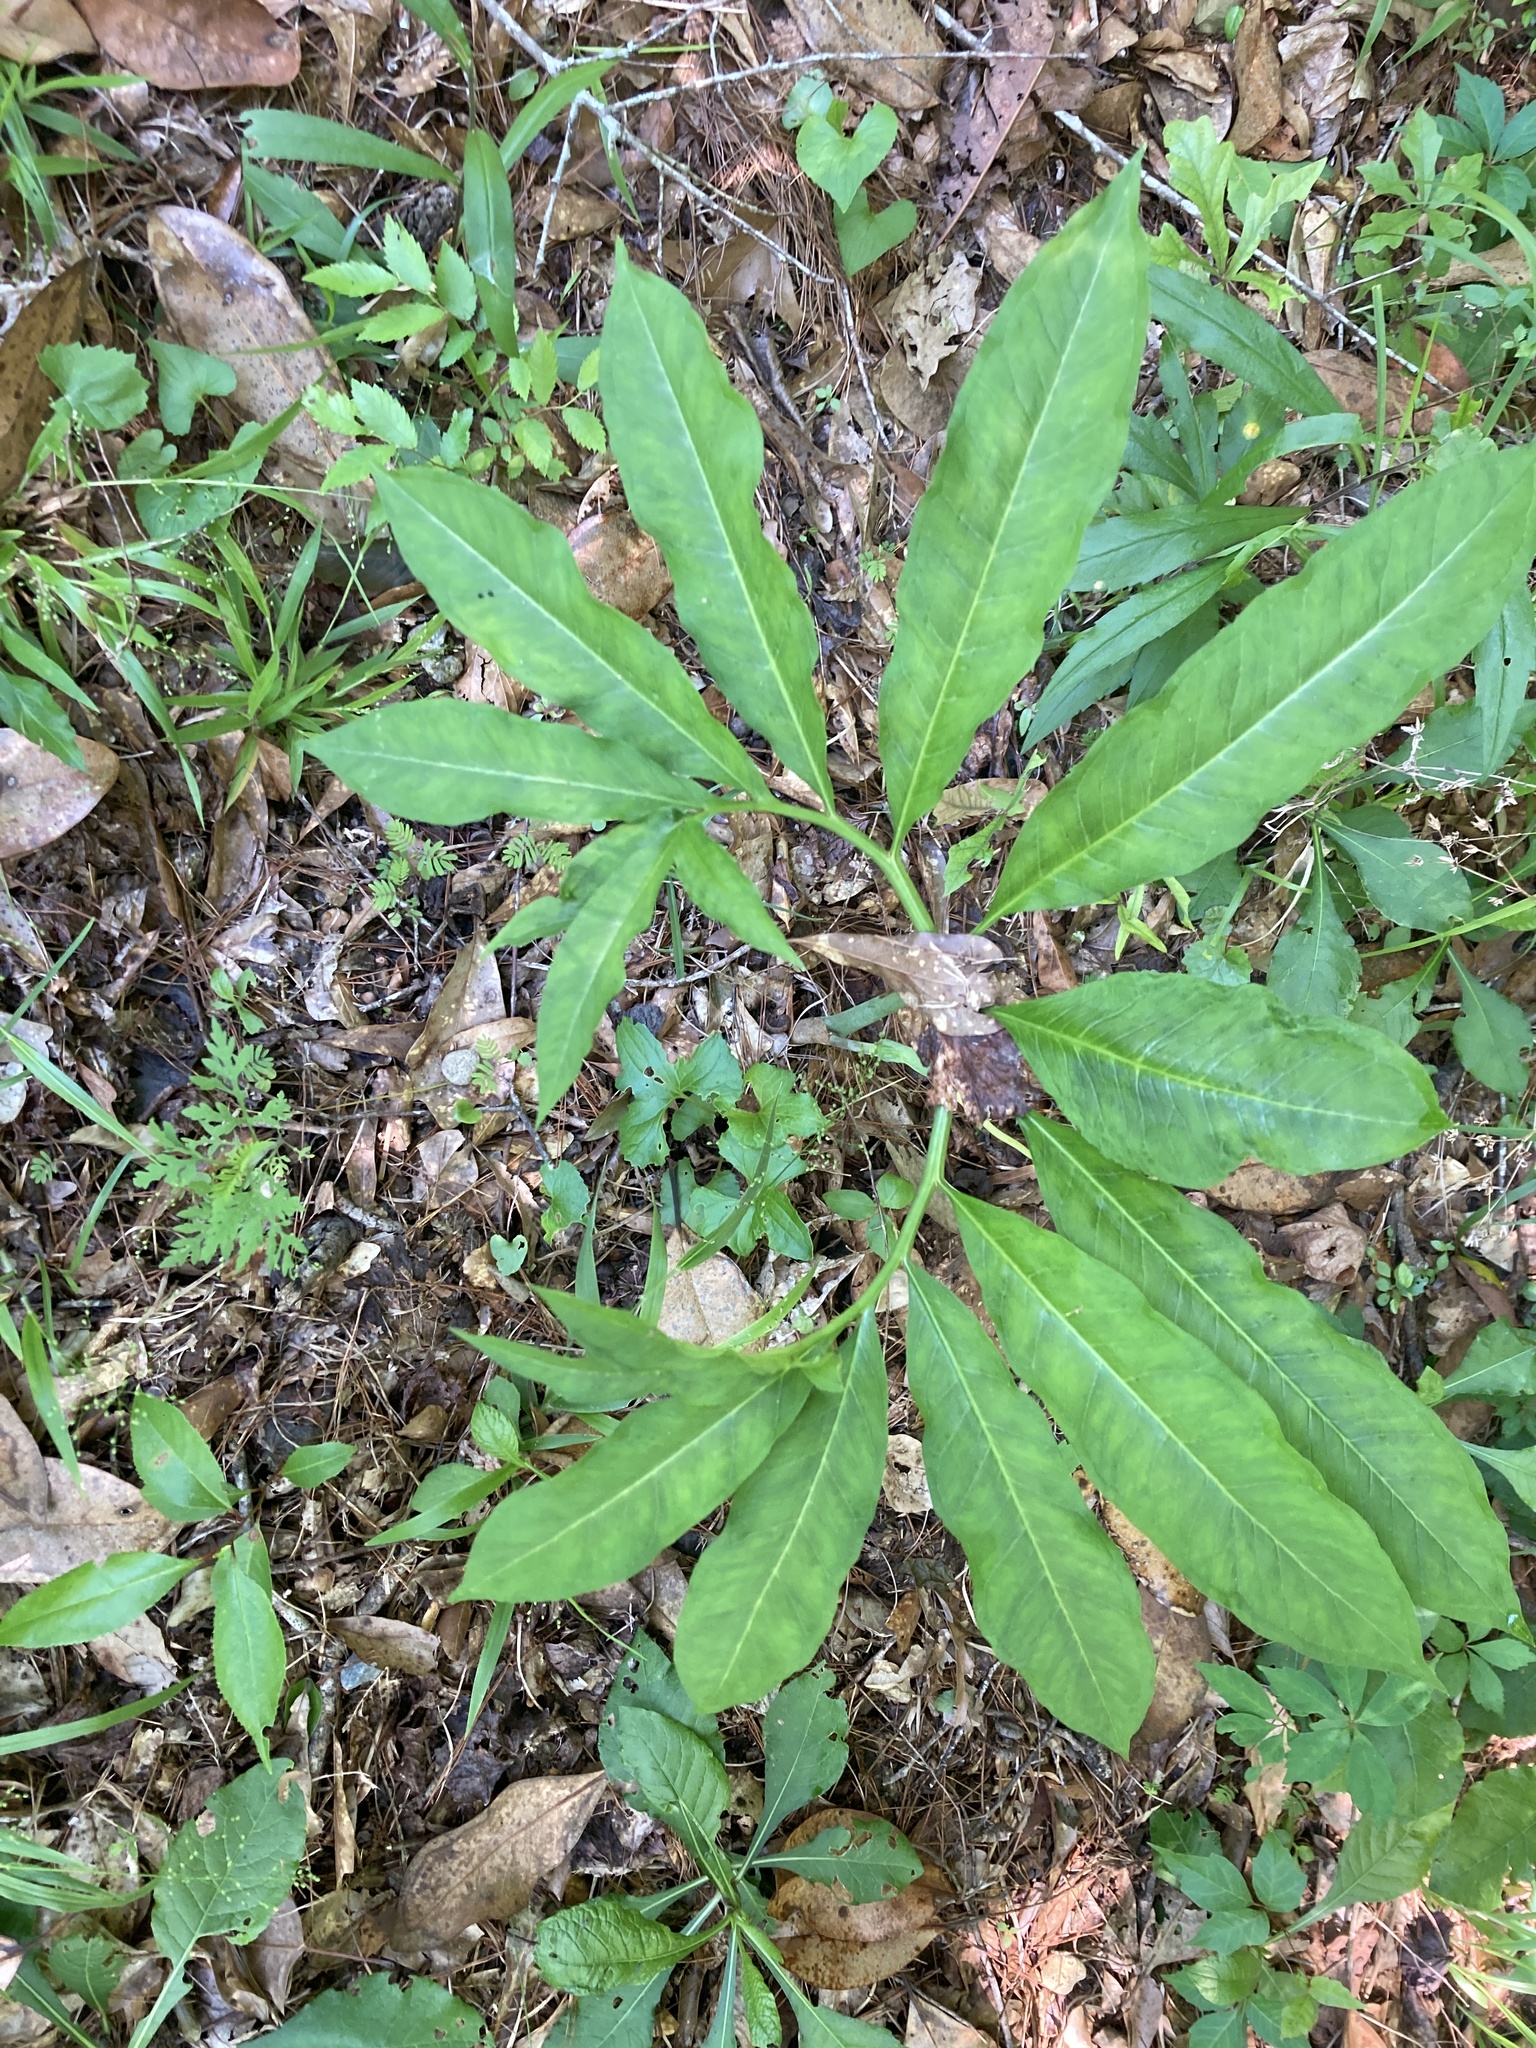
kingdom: Plantae
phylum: Tracheophyta
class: Liliopsida
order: Alismatales
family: Araceae
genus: Arisaema
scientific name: Arisaema dracontium
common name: Dragon-arum
